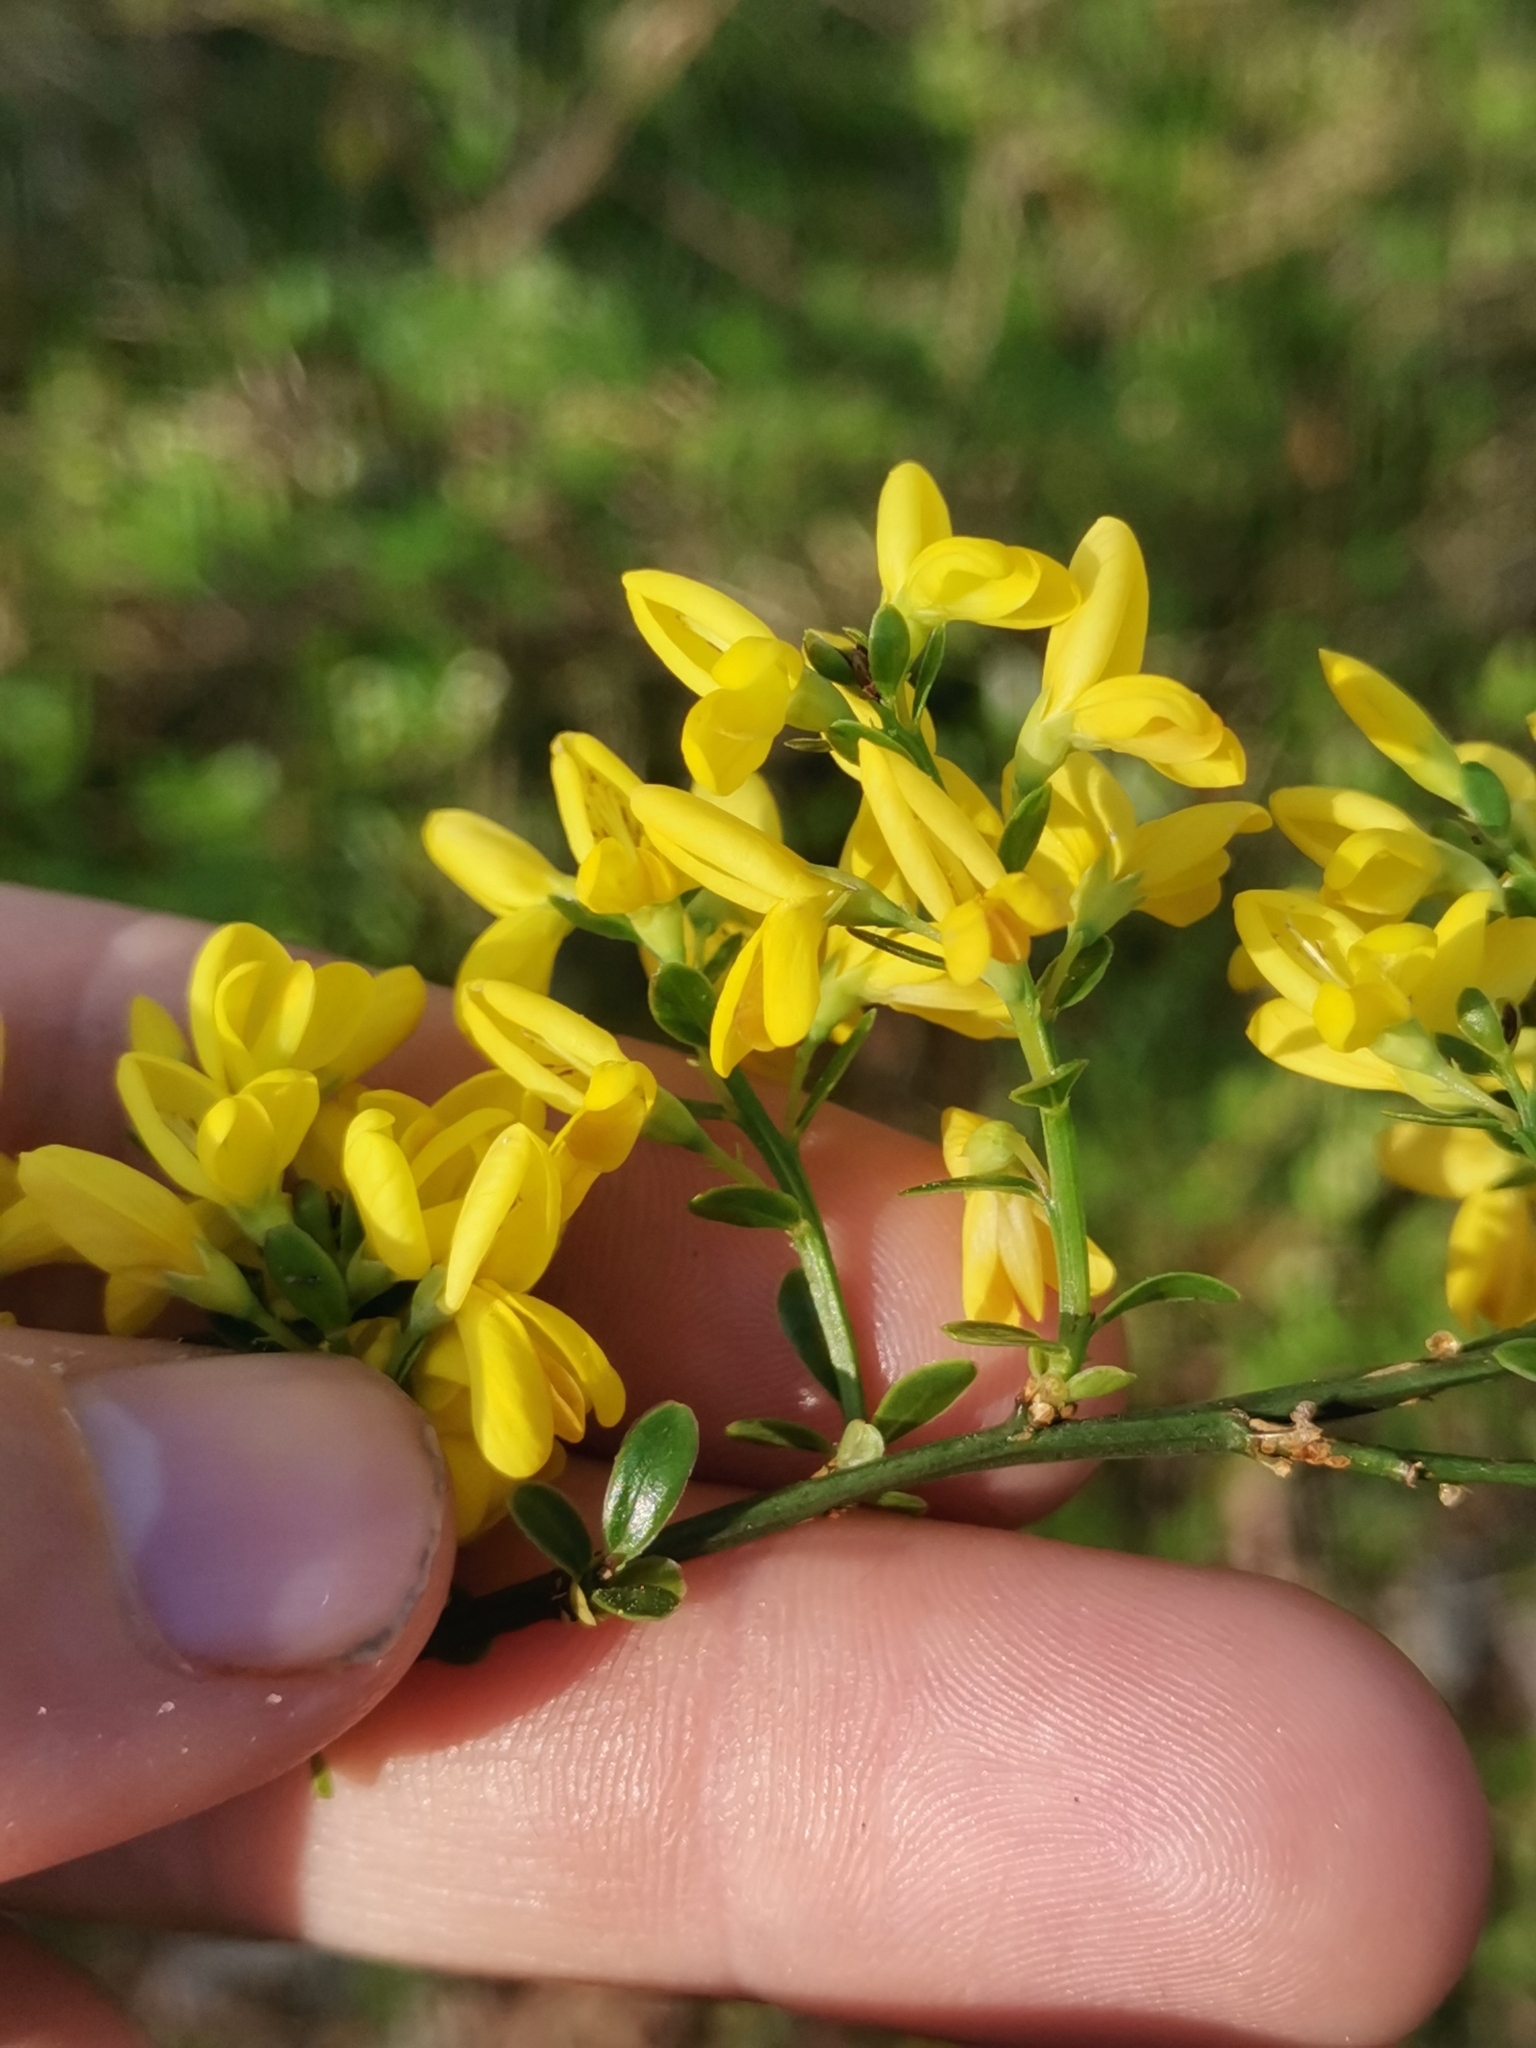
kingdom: Plantae
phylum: Tracheophyta
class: Magnoliopsida
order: Fabales
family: Fabaceae
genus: Genista
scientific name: Genista januensis
